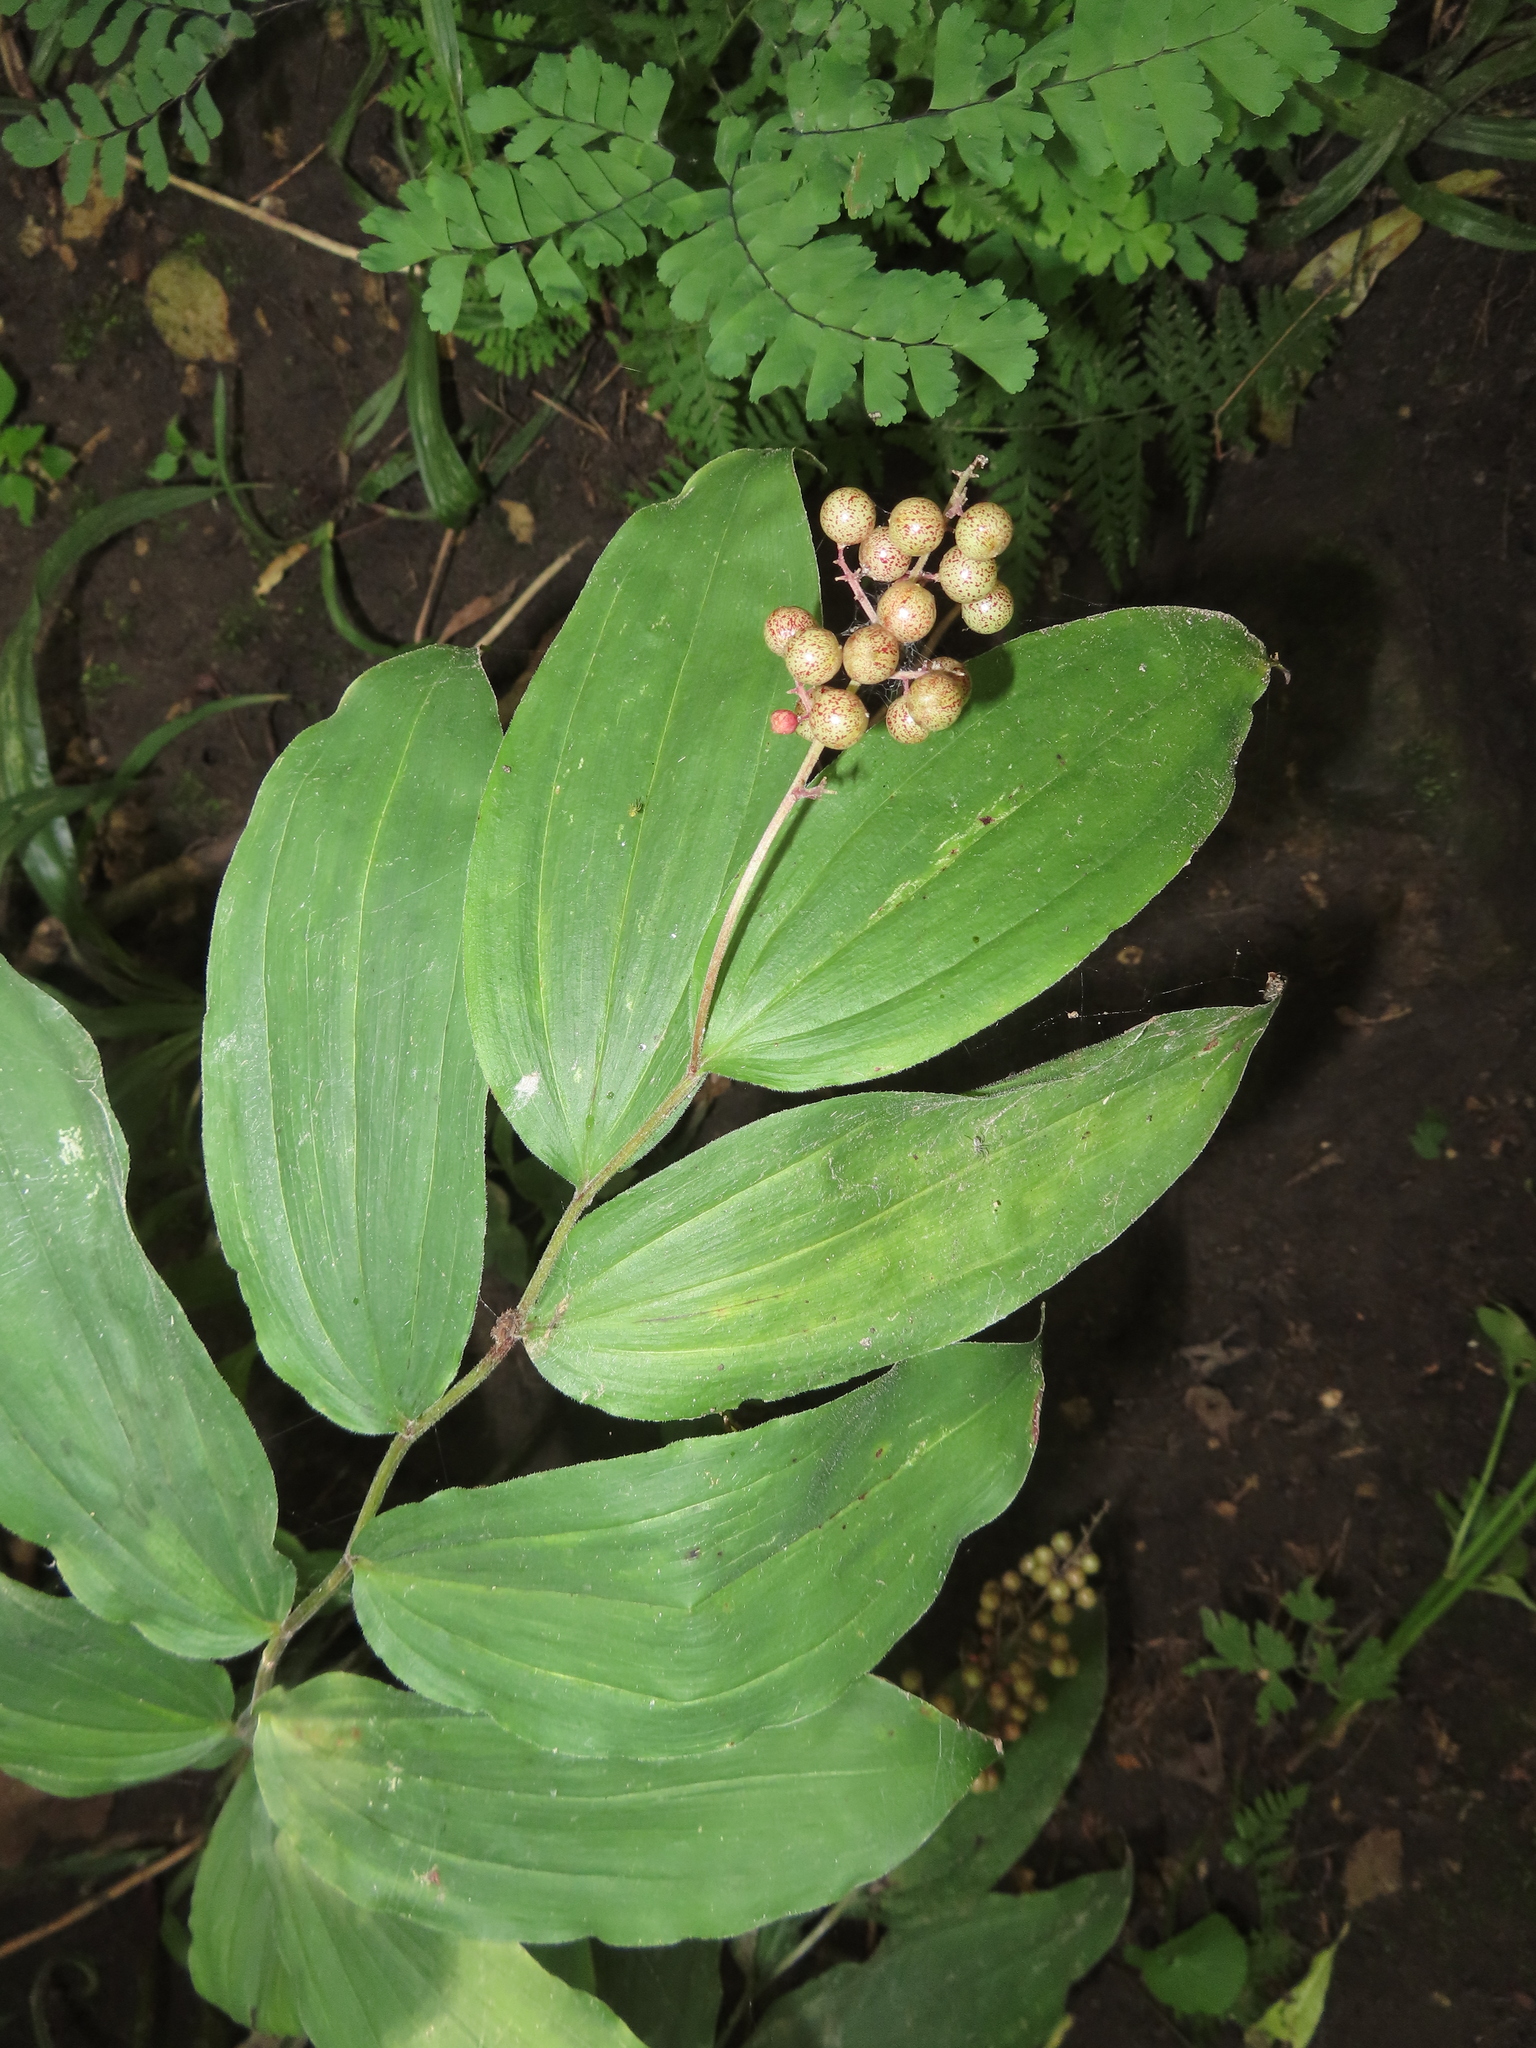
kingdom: Plantae
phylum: Tracheophyta
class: Liliopsida
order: Asparagales
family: Asparagaceae
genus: Maianthemum
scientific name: Maianthemum racemosum
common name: False spikenard
